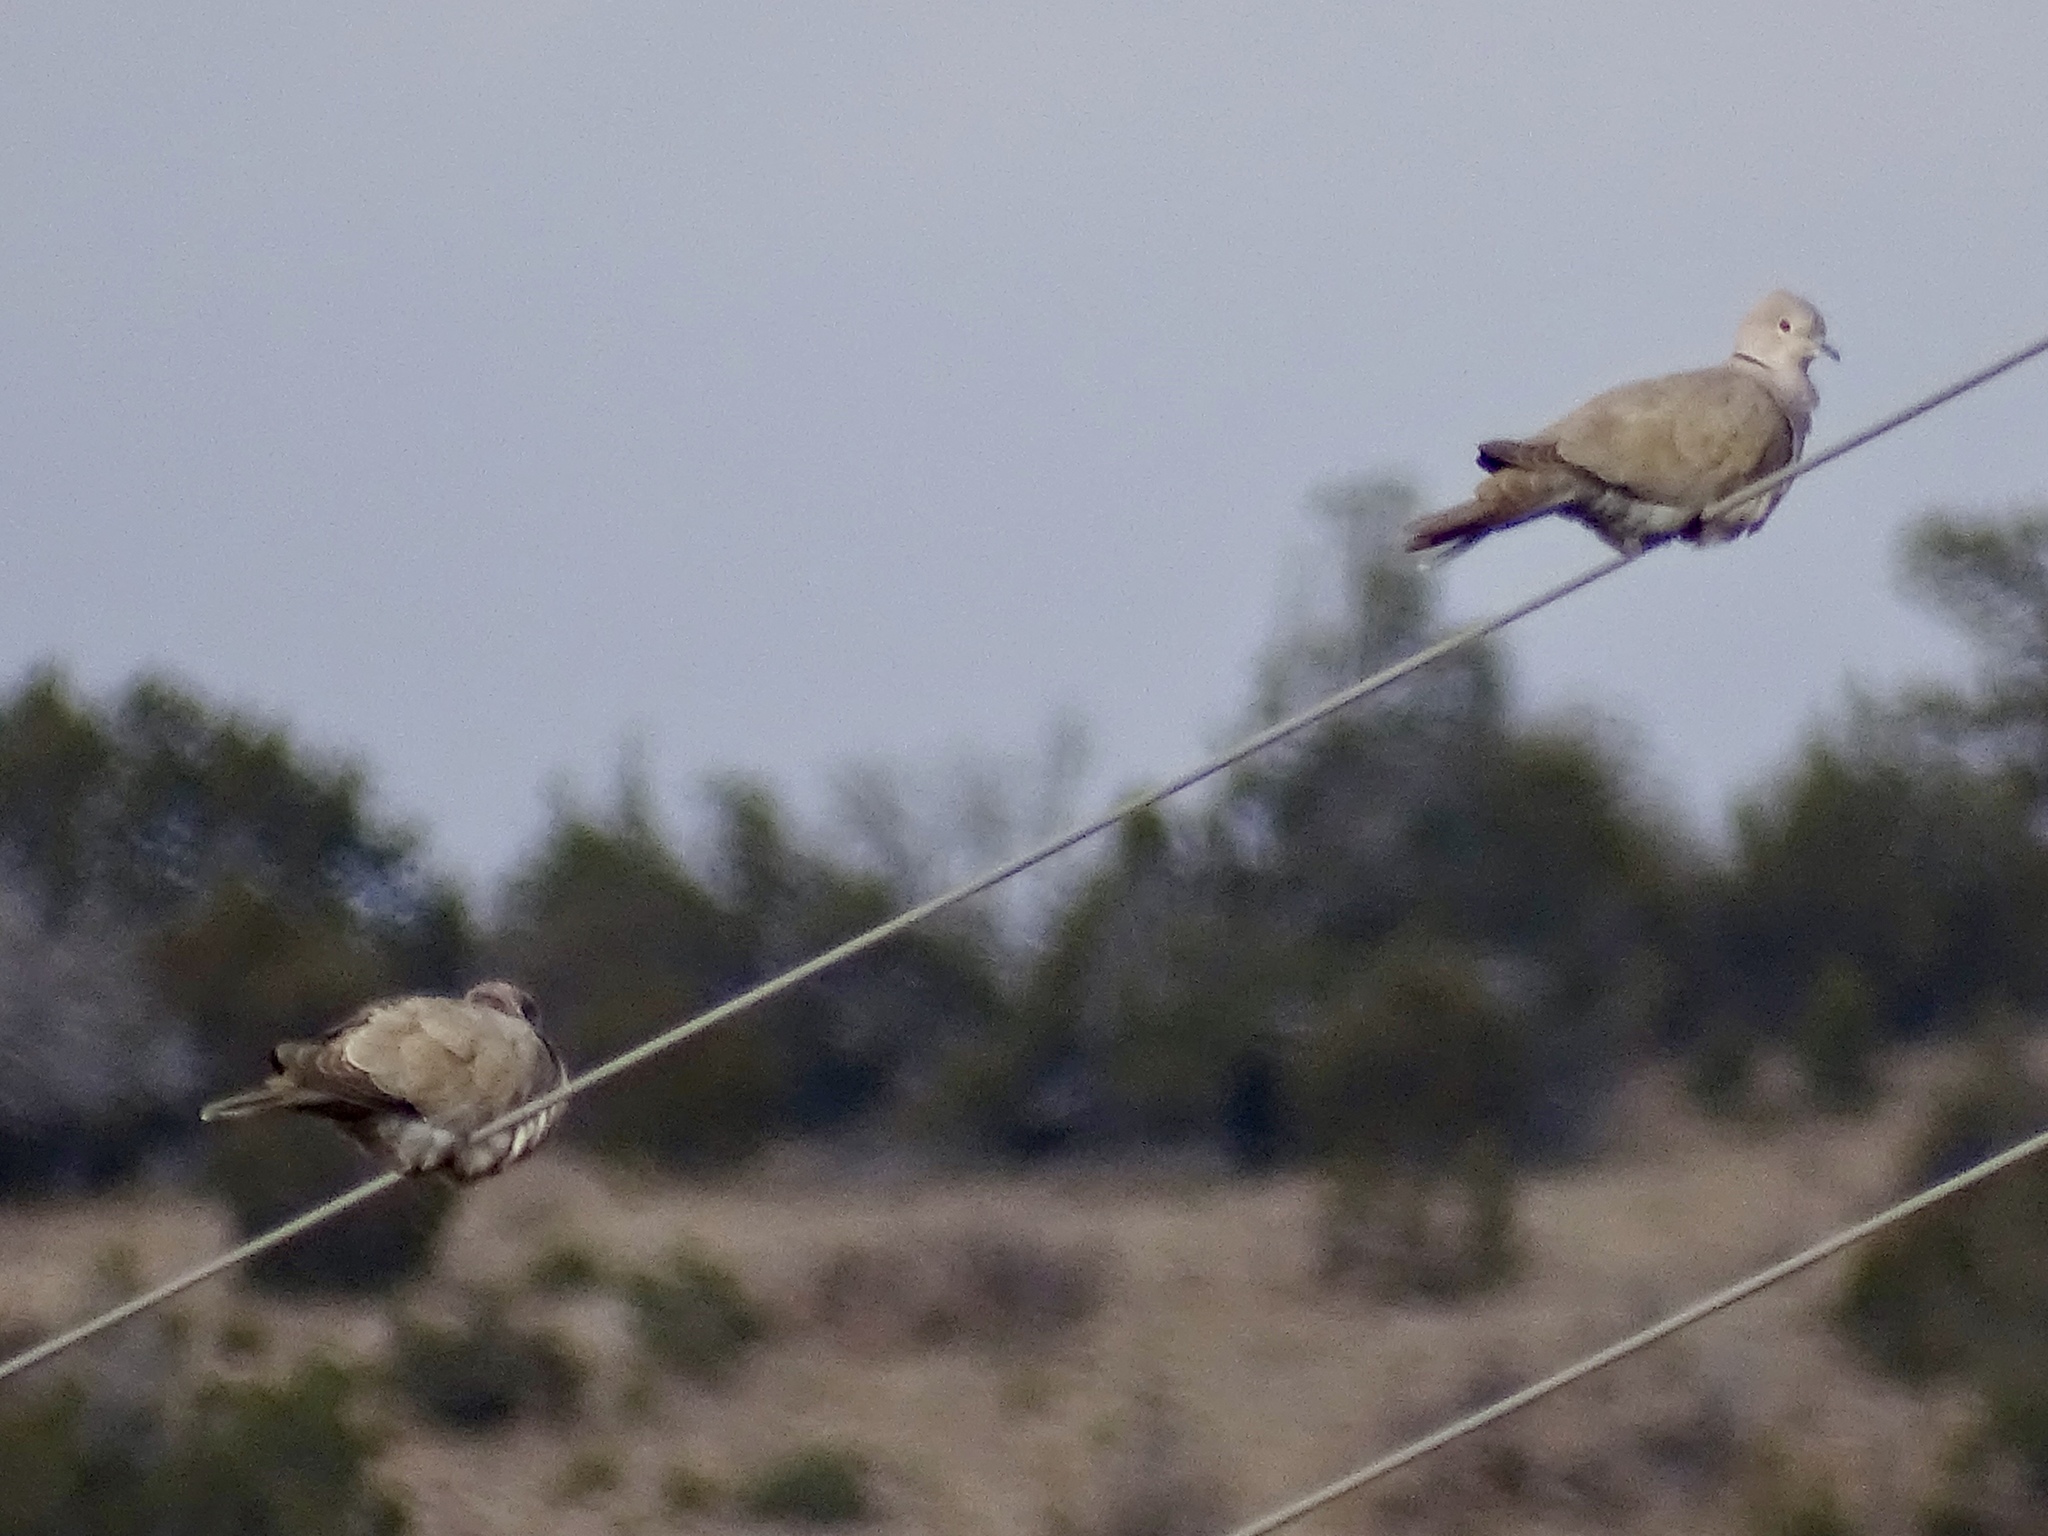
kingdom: Animalia
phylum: Chordata
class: Aves
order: Columbiformes
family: Columbidae
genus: Streptopelia
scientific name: Streptopelia decaocto
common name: Eurasian collared dove
